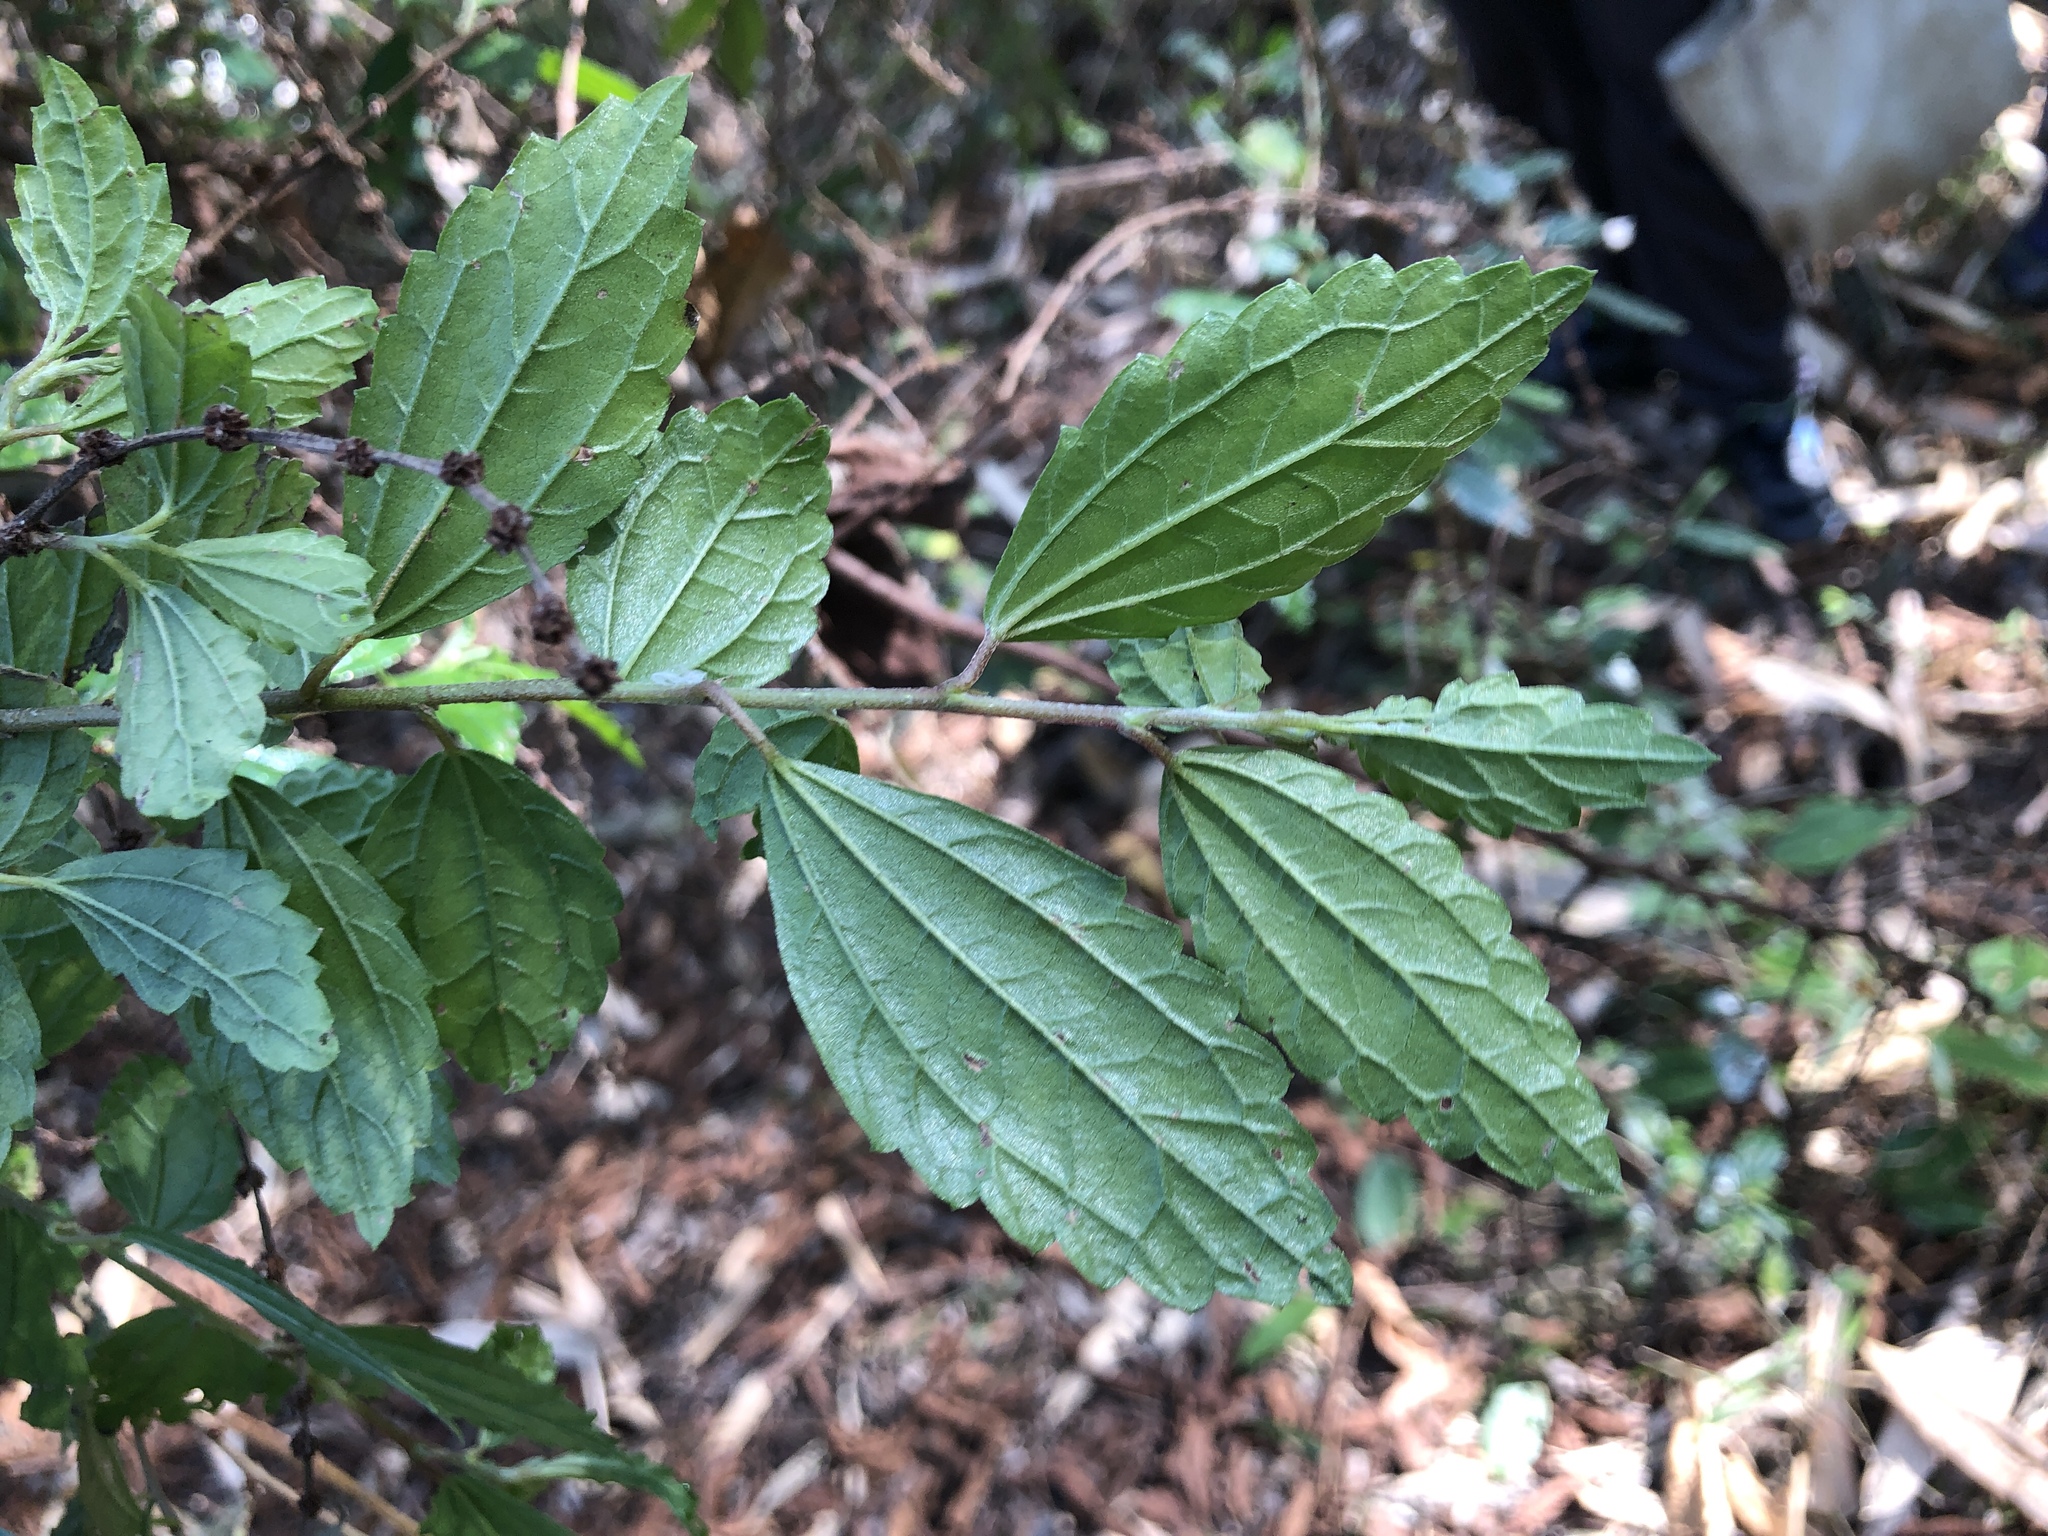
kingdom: Plantae
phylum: Tracheophyta
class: Magnoliopsida
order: Rosales
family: Urticaceae
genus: Pouzolzia
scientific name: Pouzolzia sanguinea
